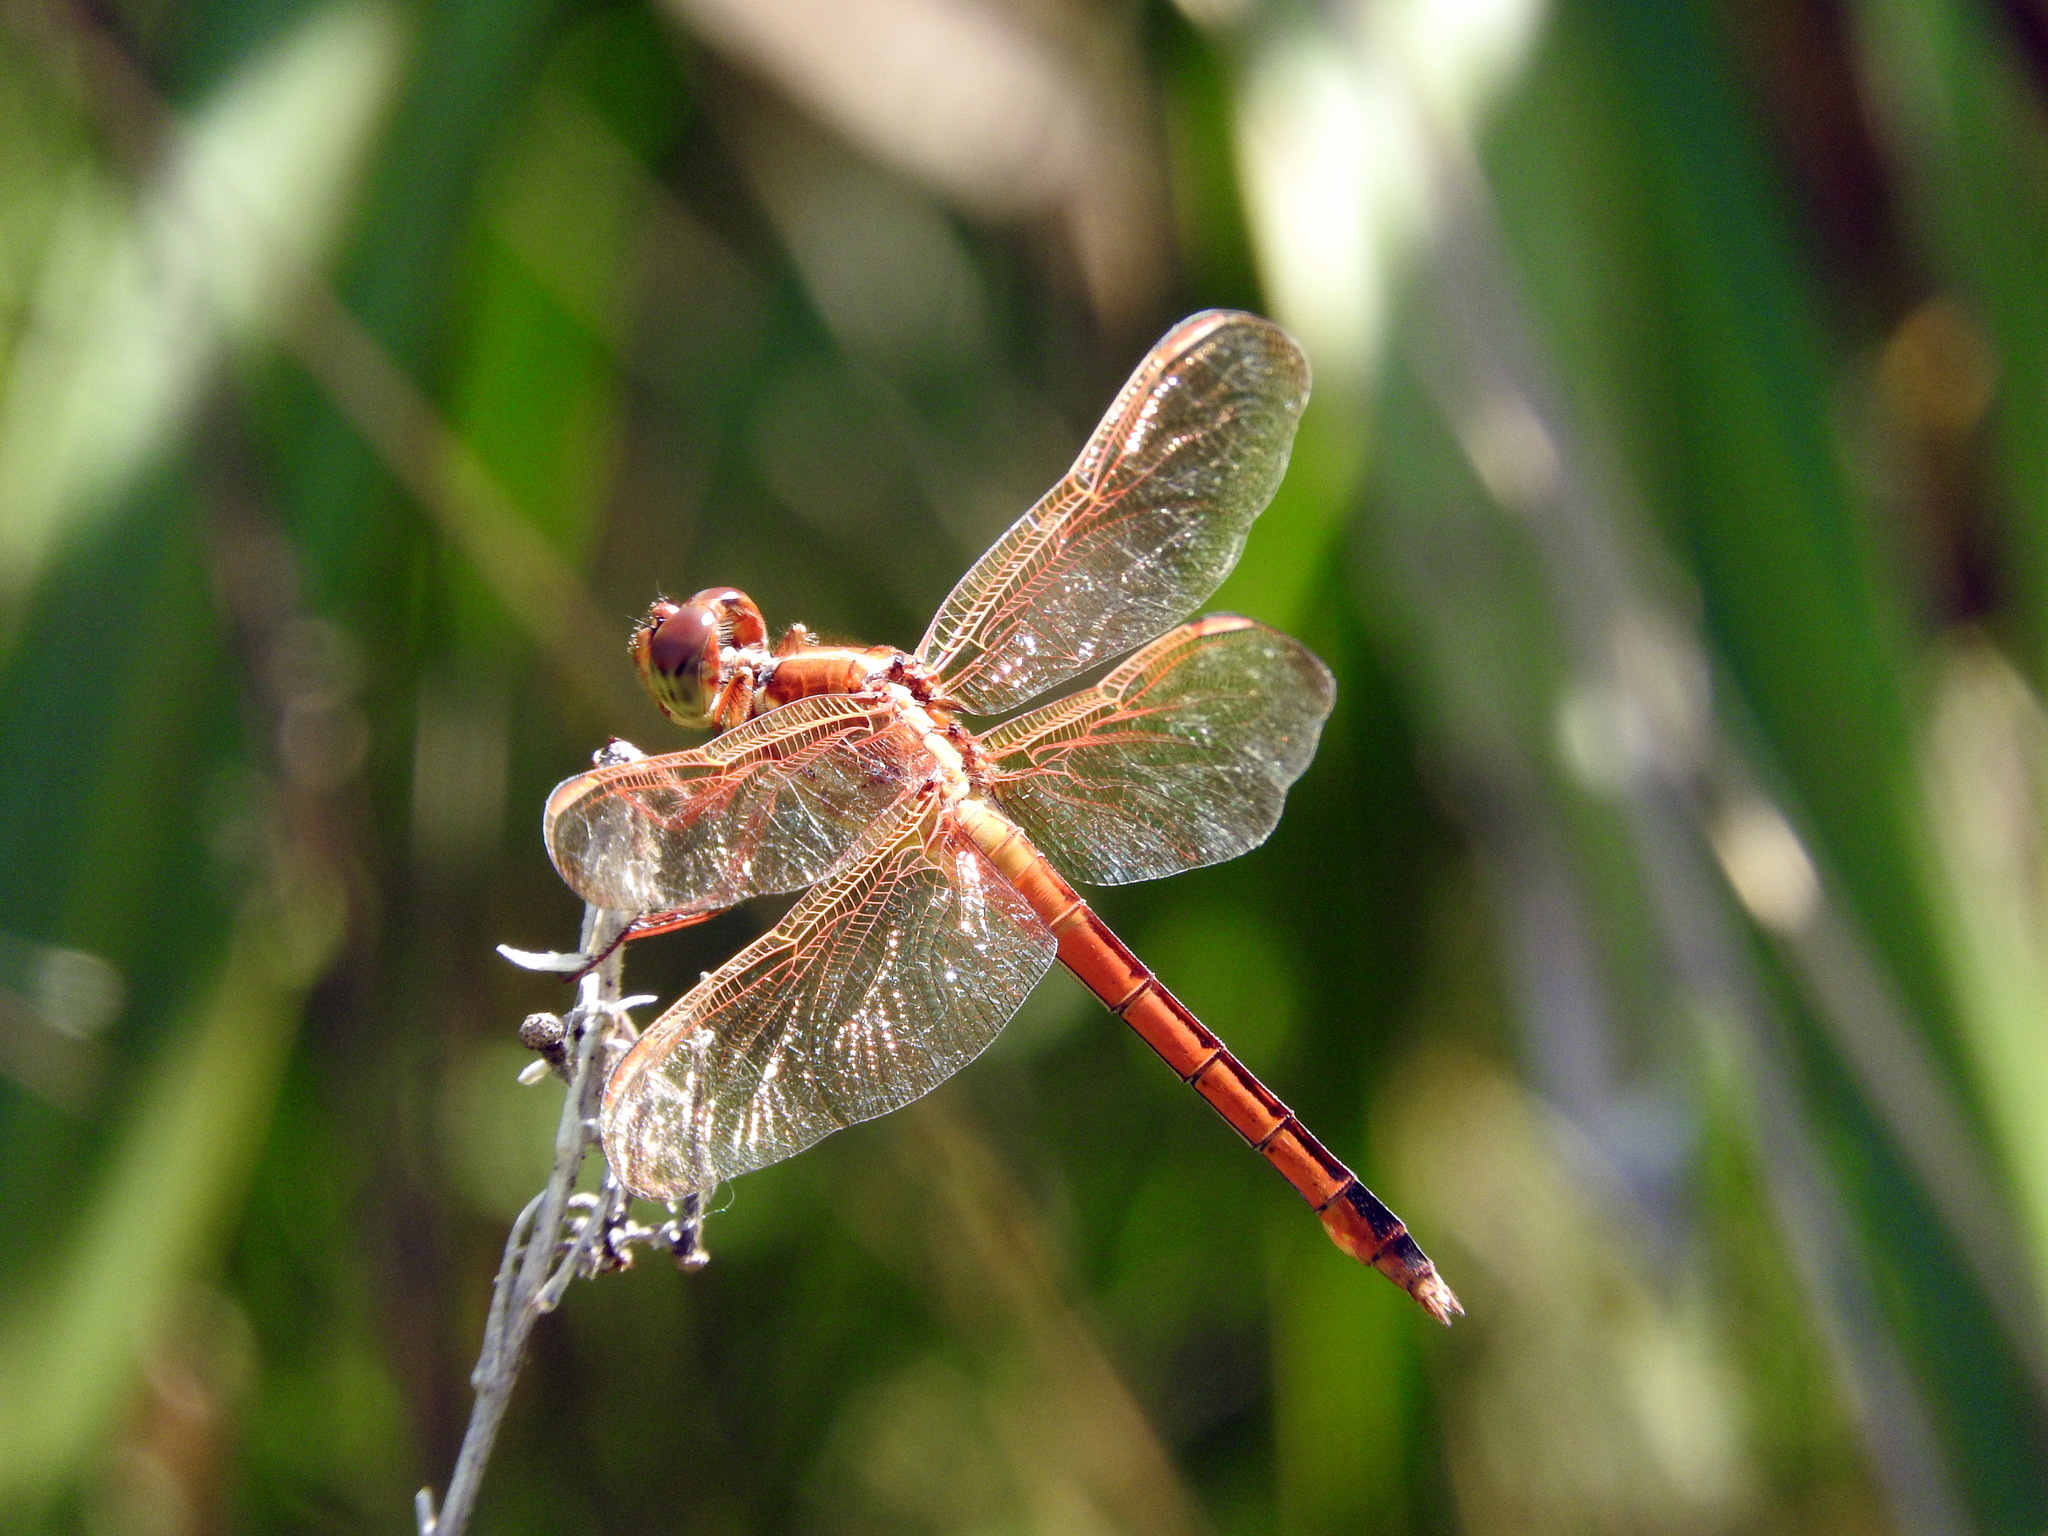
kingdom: Animalia
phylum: Arthropoda
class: Insecta
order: Odonata
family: Libellulidae
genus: Libellula
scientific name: Libellula needhami
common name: Needham's skimmer
